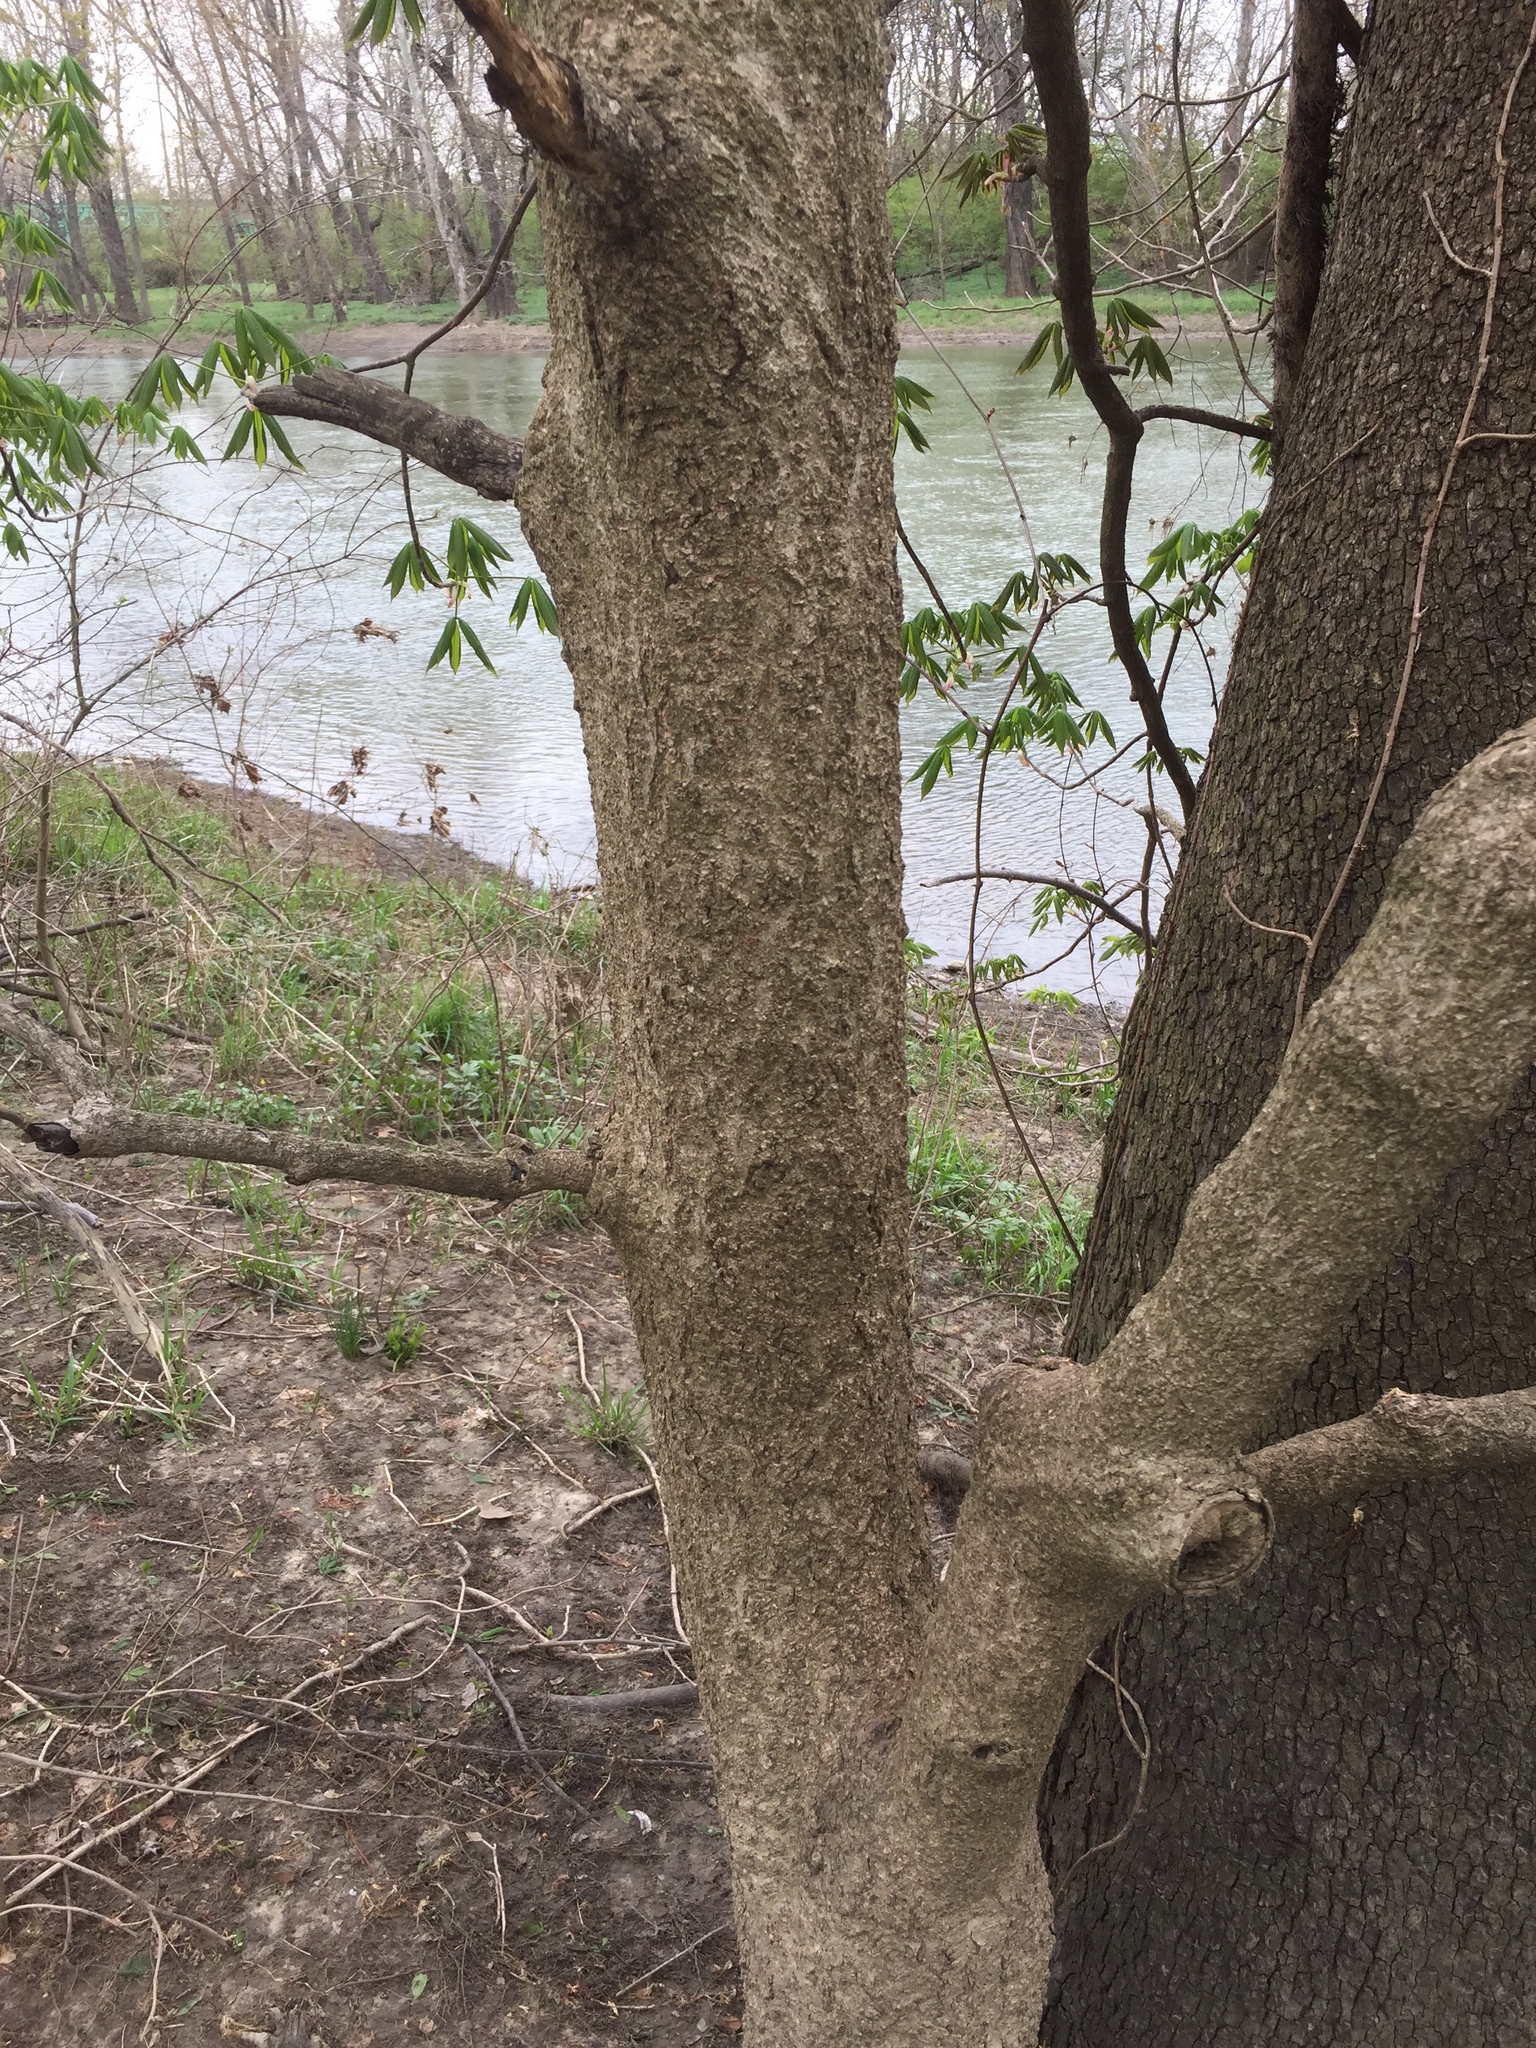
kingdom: Plantae
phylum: Tracheophyta
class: Magnoliopsida
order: Sapindales
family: Sapindaceae
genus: Aesculus
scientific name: Aesculus glabra
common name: Ohio buckeye
